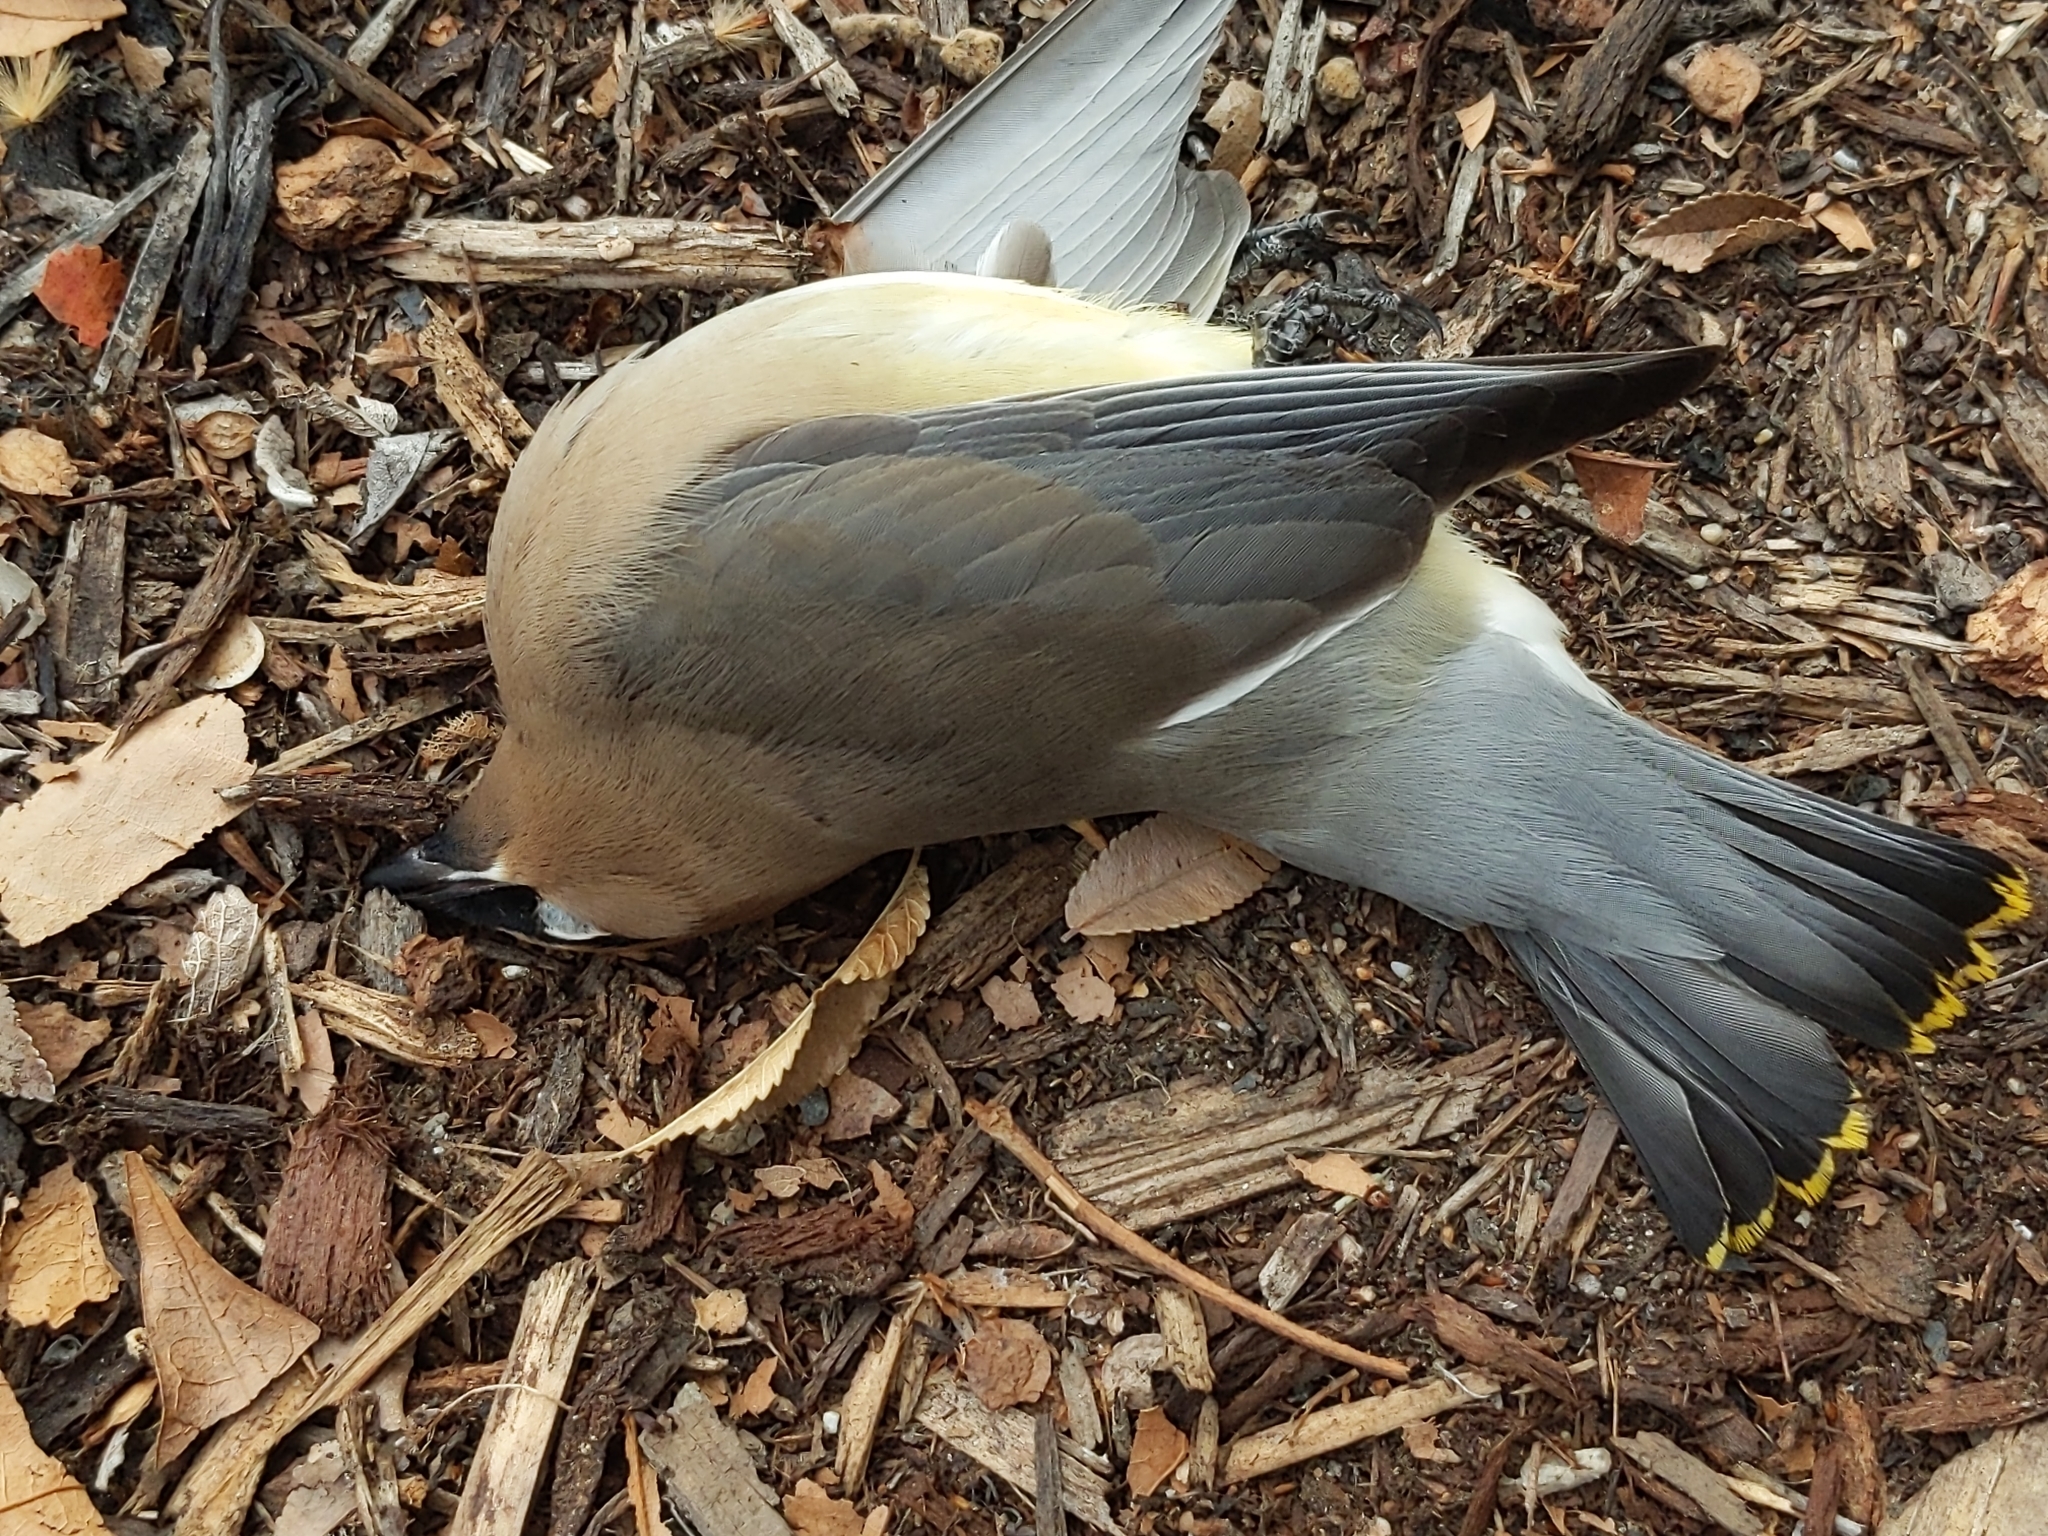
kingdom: Animalia
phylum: Chordata
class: Aves
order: Passeriformes
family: Bombycillidae
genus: Bombycilla
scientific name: Bombycilla cedrorum
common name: Cedar waxwing
